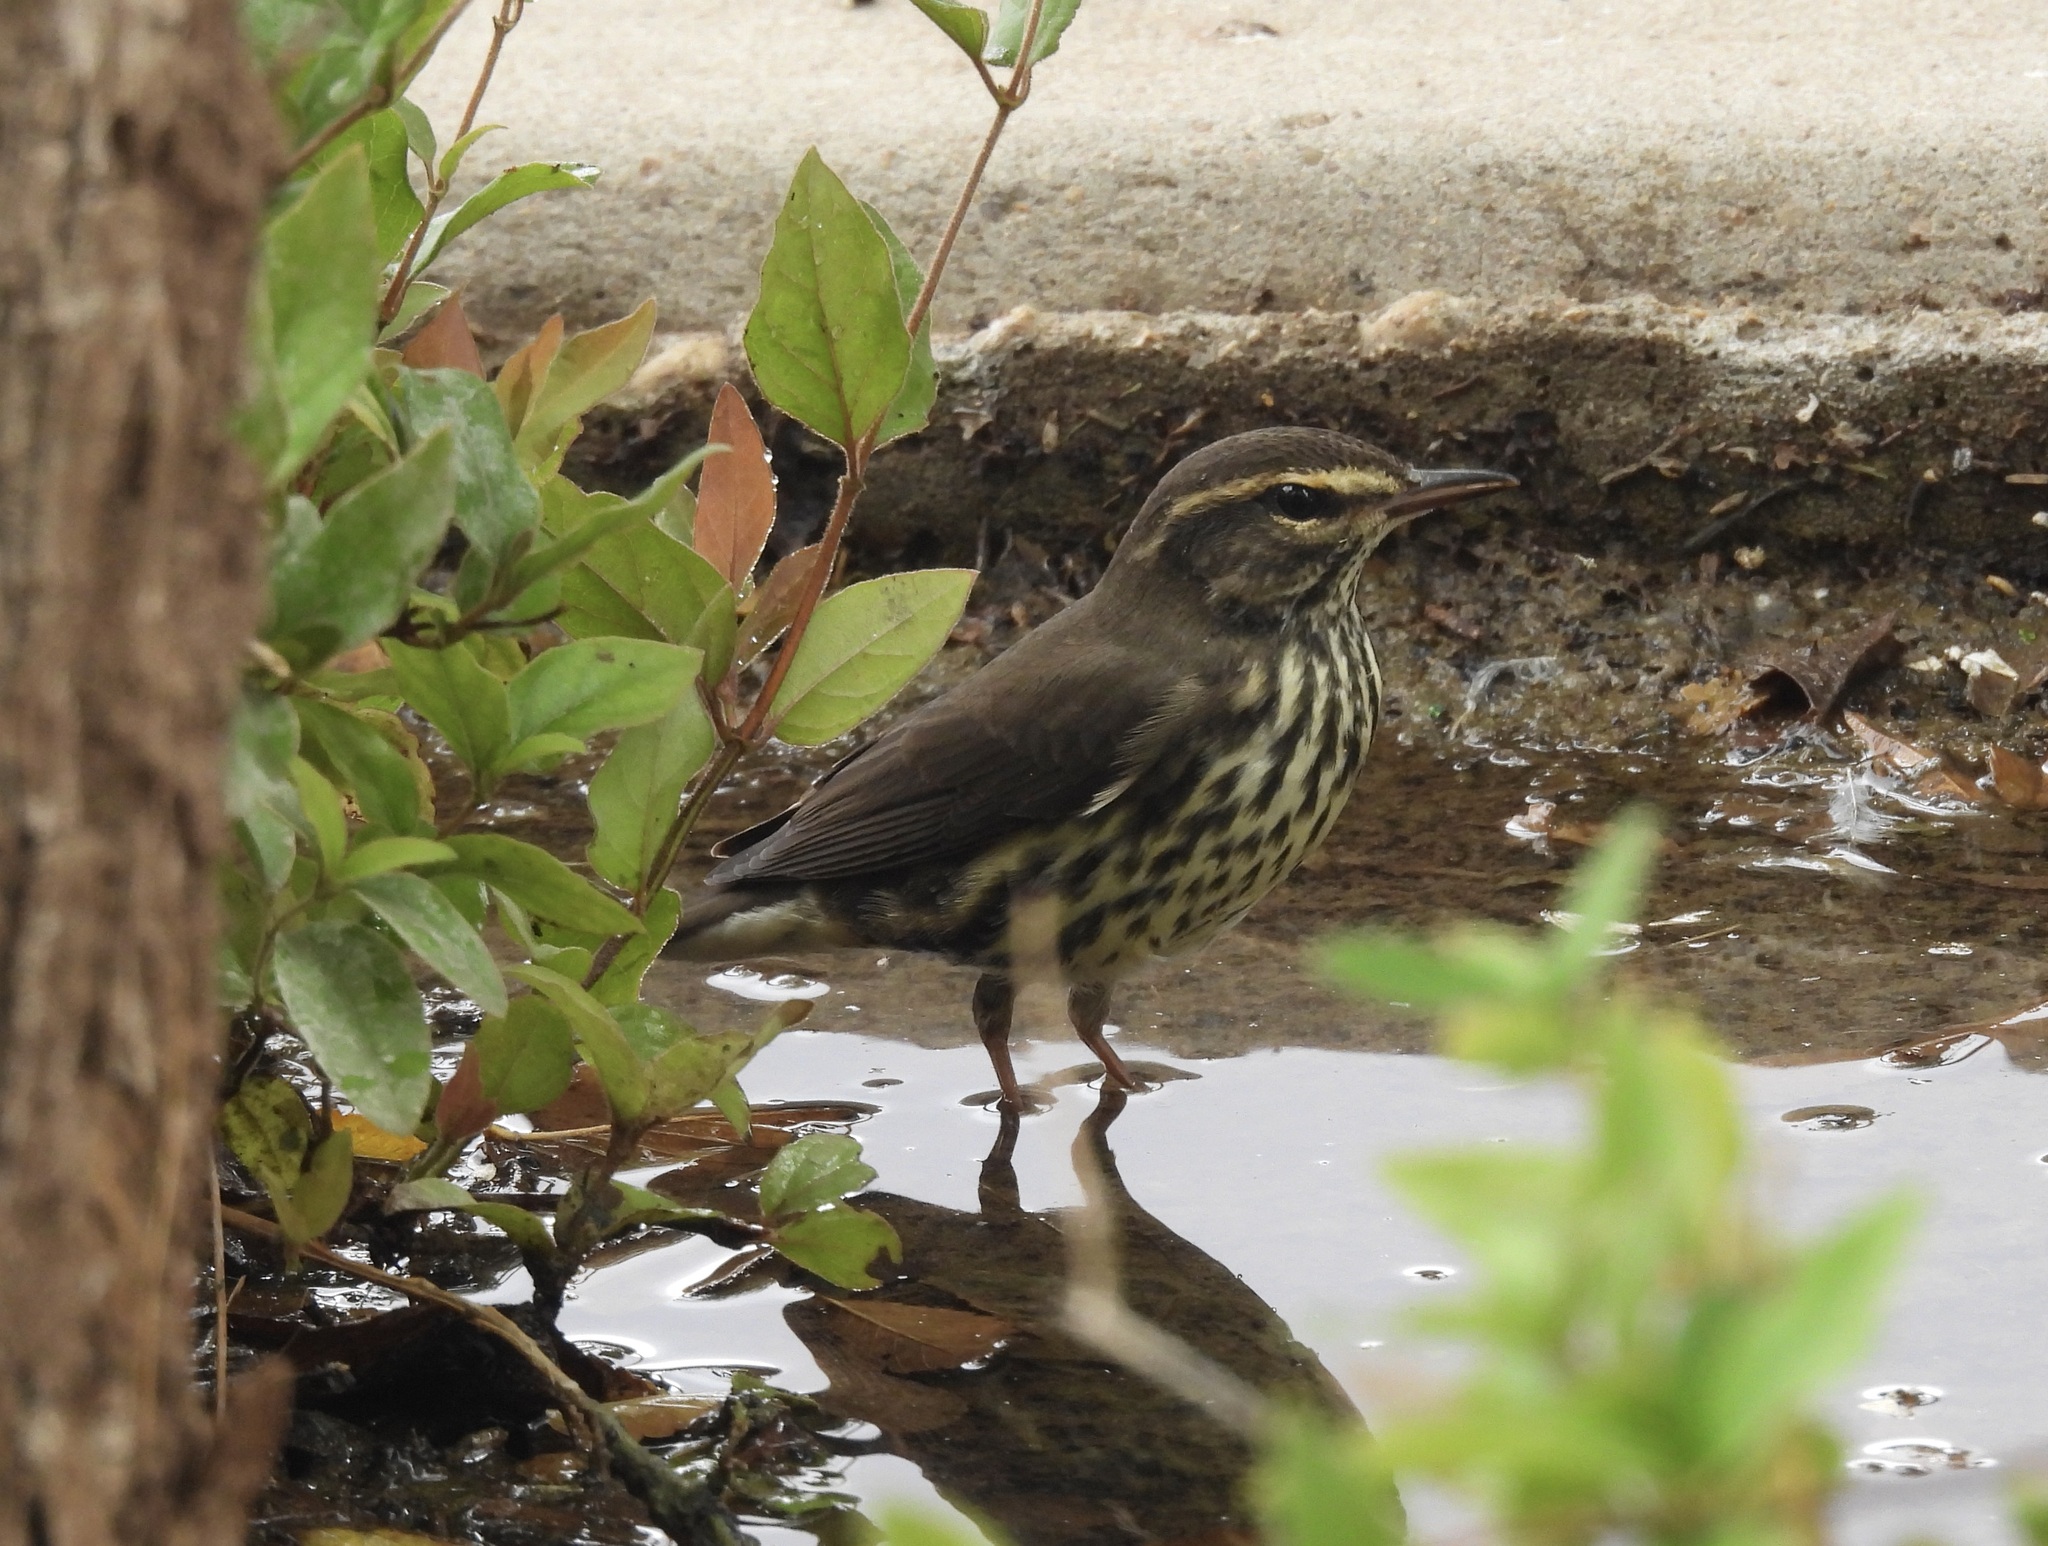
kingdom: Animalia
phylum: Chordata
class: Aves
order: Passeriformes
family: Parulidae
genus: Parkesia
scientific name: Parkesia noveboracensis
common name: Northern waterthrush
